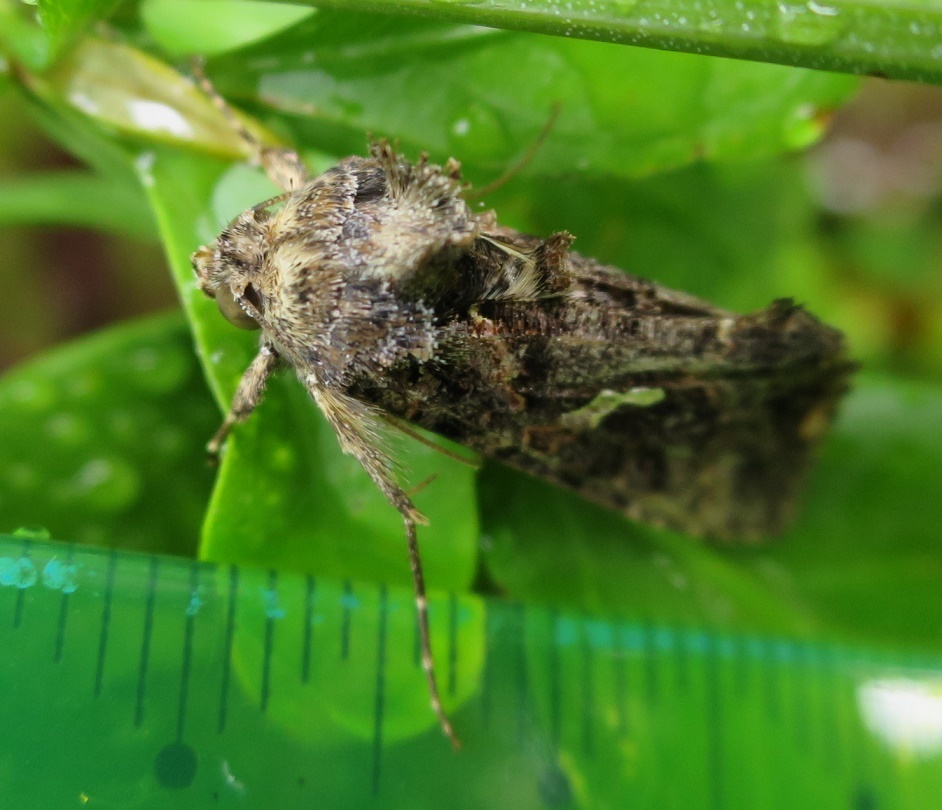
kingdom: Animalia
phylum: Arthropoda
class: Insecta
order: Lepidoptera
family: Noctuidae
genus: Ctenoplusia
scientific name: Ctenoplusia limbirena
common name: Scar bank gem
